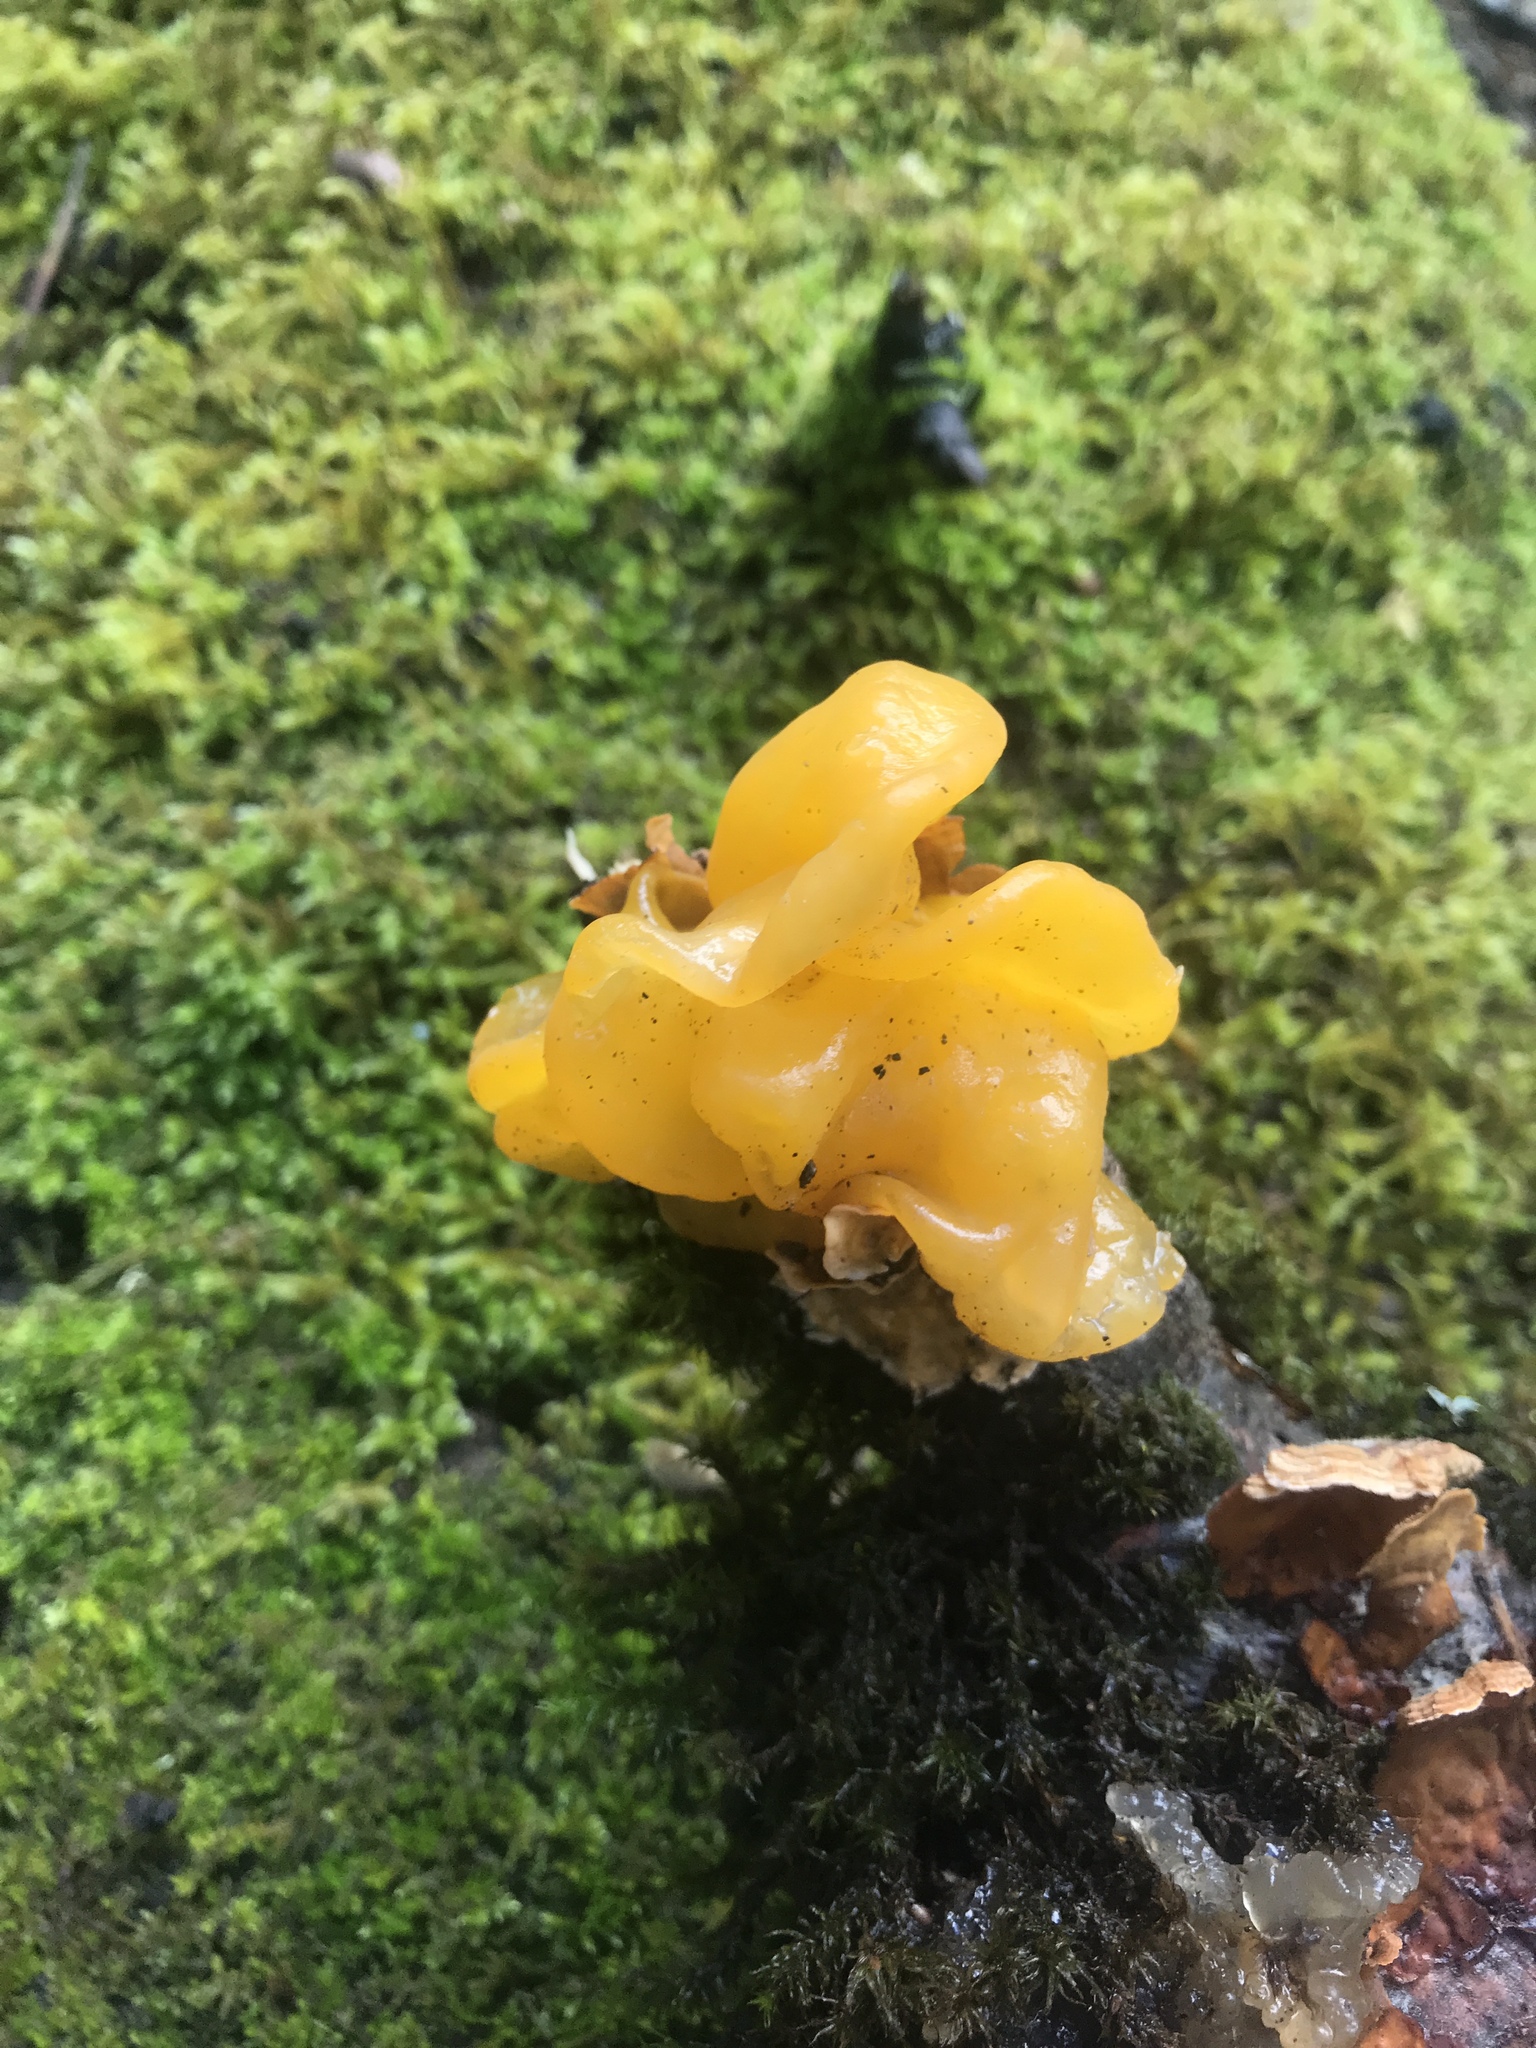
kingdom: Fungi
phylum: Basidiomycota
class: Tremellomycetes
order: Tremellales
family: Naemateliaceae
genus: Naematelia
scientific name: Naematelia aurantia
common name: Golden ear
